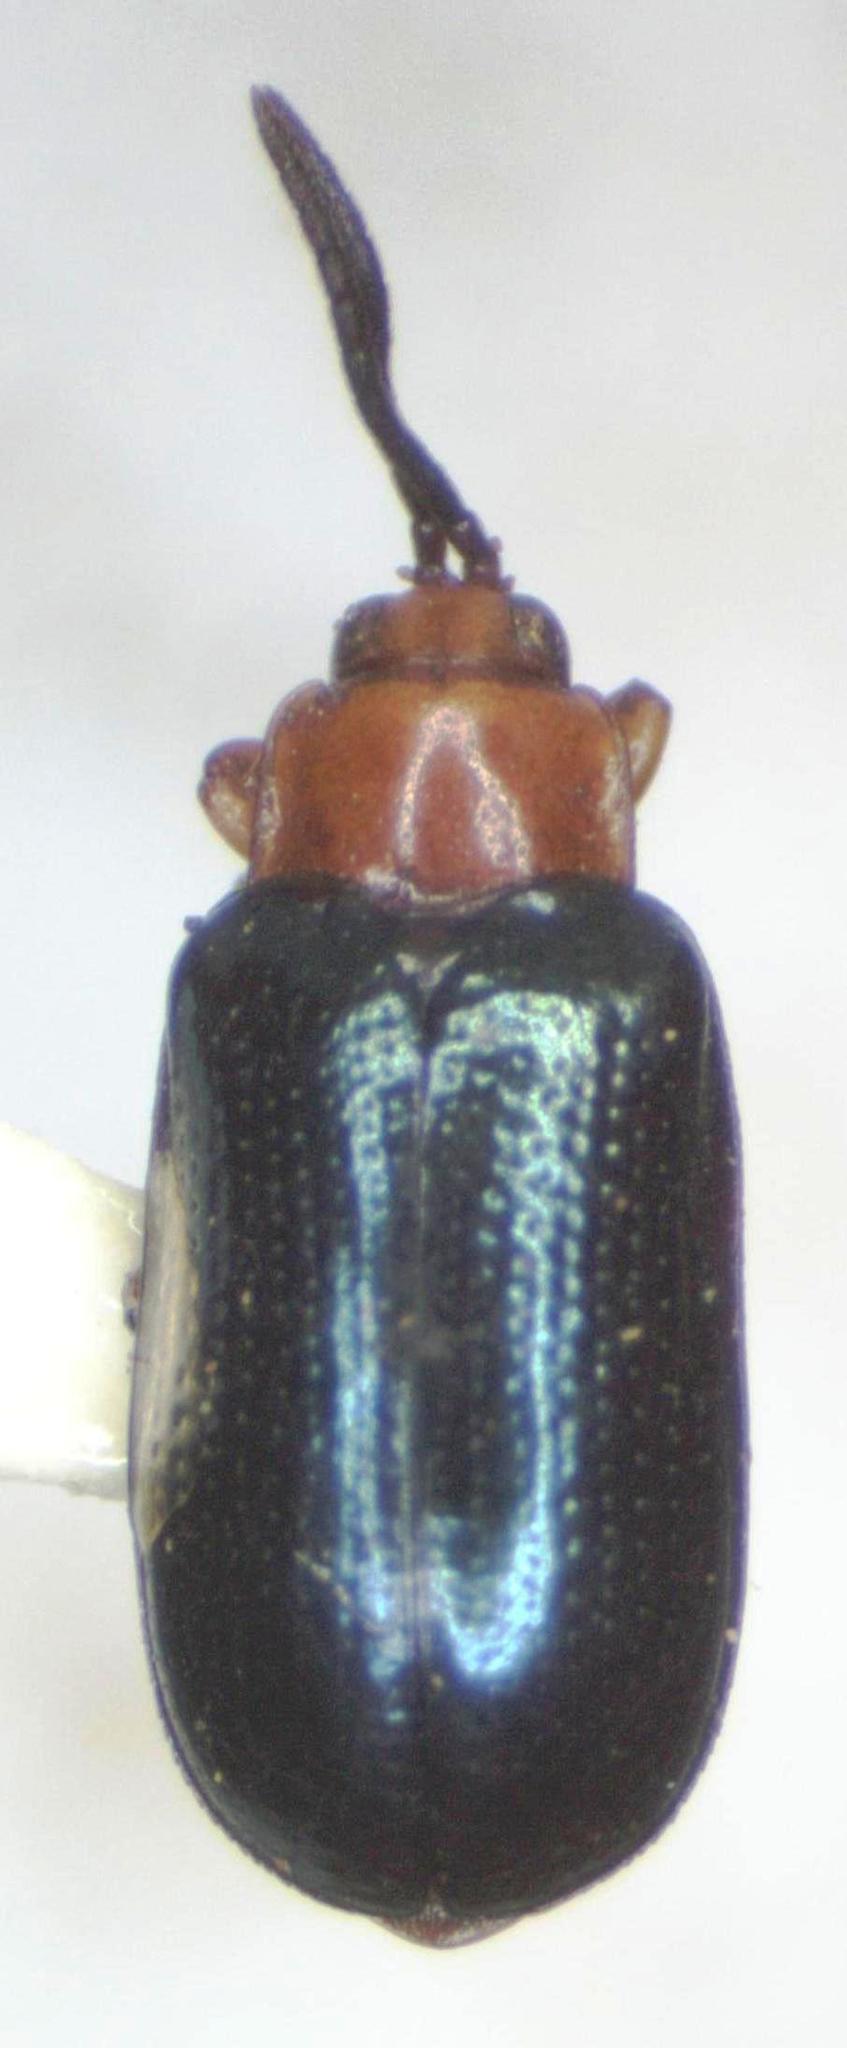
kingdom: Animalia
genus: Xenispa
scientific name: Xenispa
